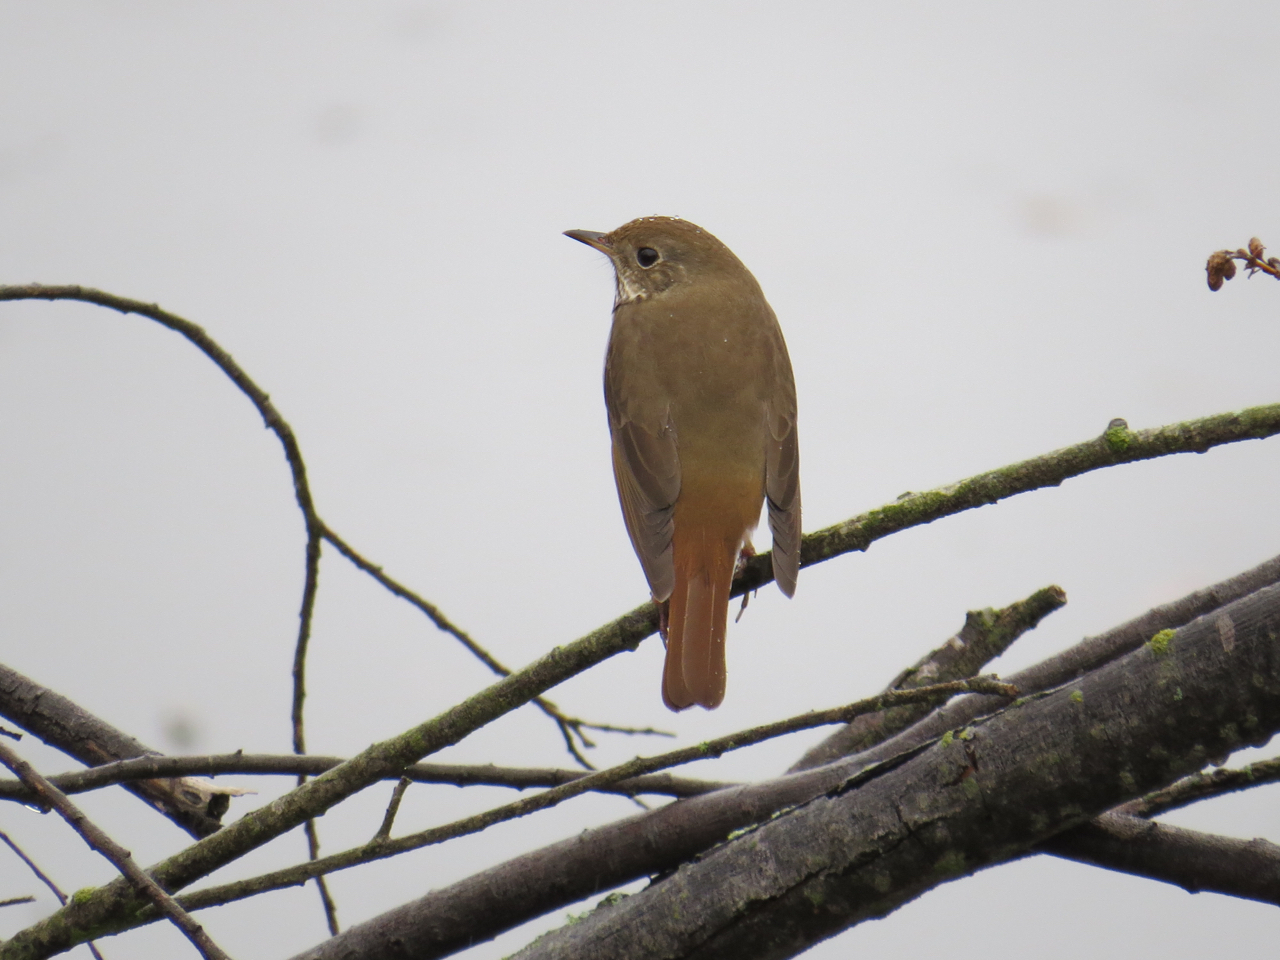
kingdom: Animalia
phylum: Chordata
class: Aves
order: Passeriformes
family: Turdidae
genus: Catharus
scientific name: Catharus guttatus
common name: Hermit thrush
